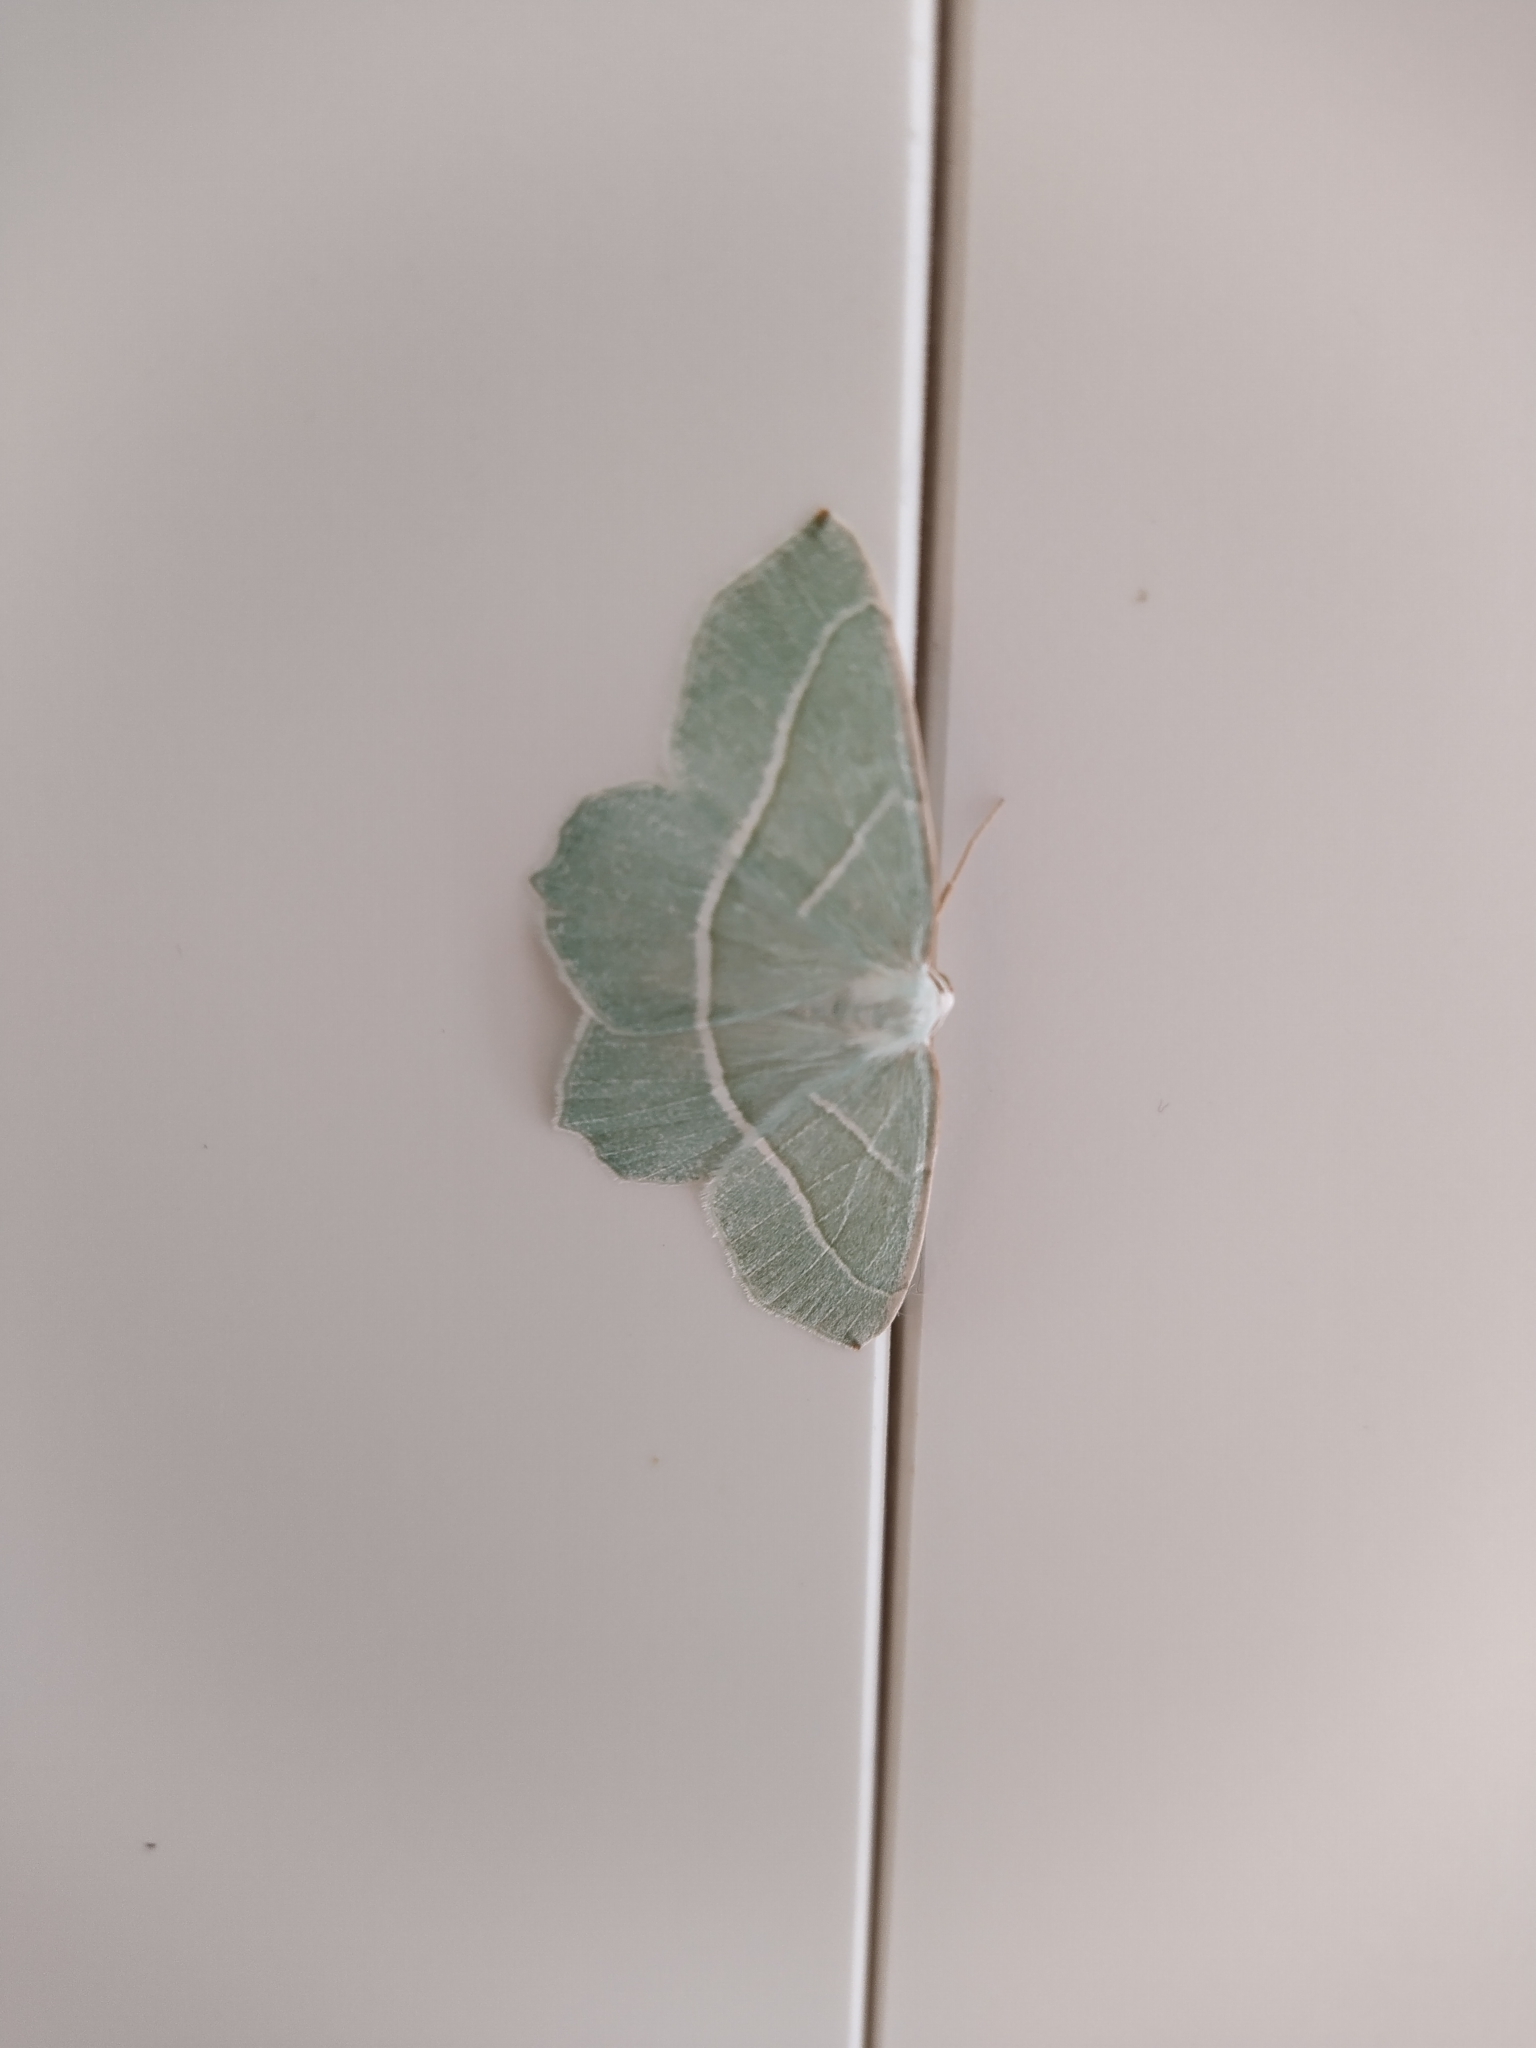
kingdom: Animalia
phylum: Arthropoda
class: Insecta
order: Lepidoptera
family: Geometridae
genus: Campaea
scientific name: Campaea margaritaria
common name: Light emerald
